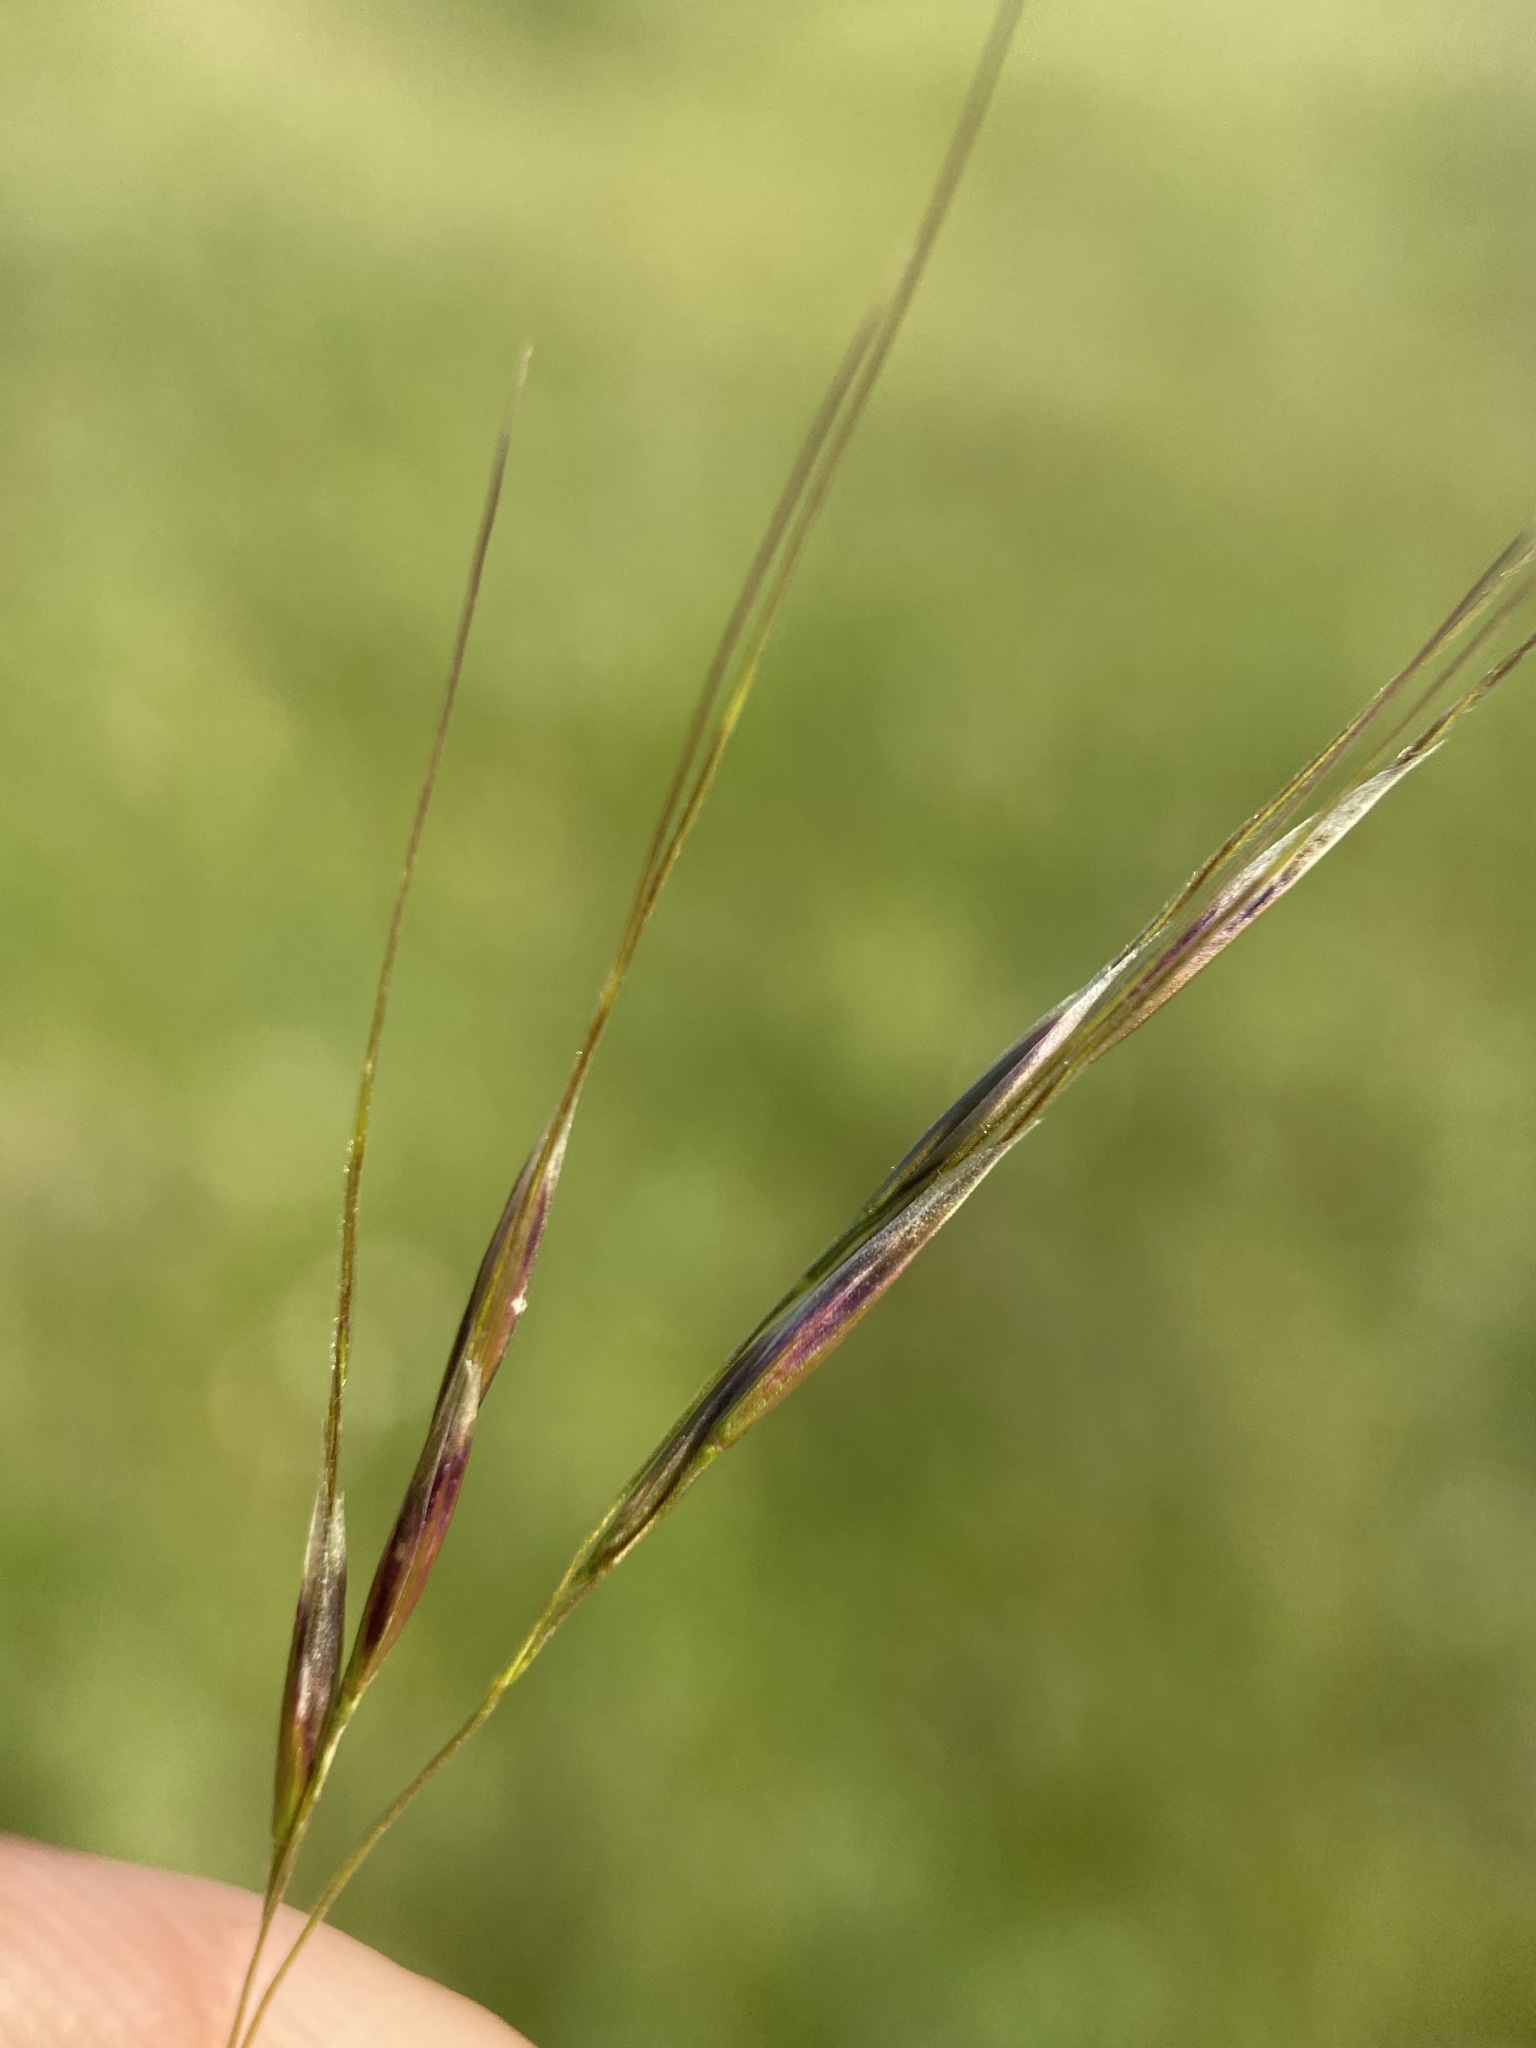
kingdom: Plantae
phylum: Tracheophyta
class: Liliopsida
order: Poales
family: Poaceae
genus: Eriocoma
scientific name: Eriocoma richardsonii
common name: Richardson's needlegrass
